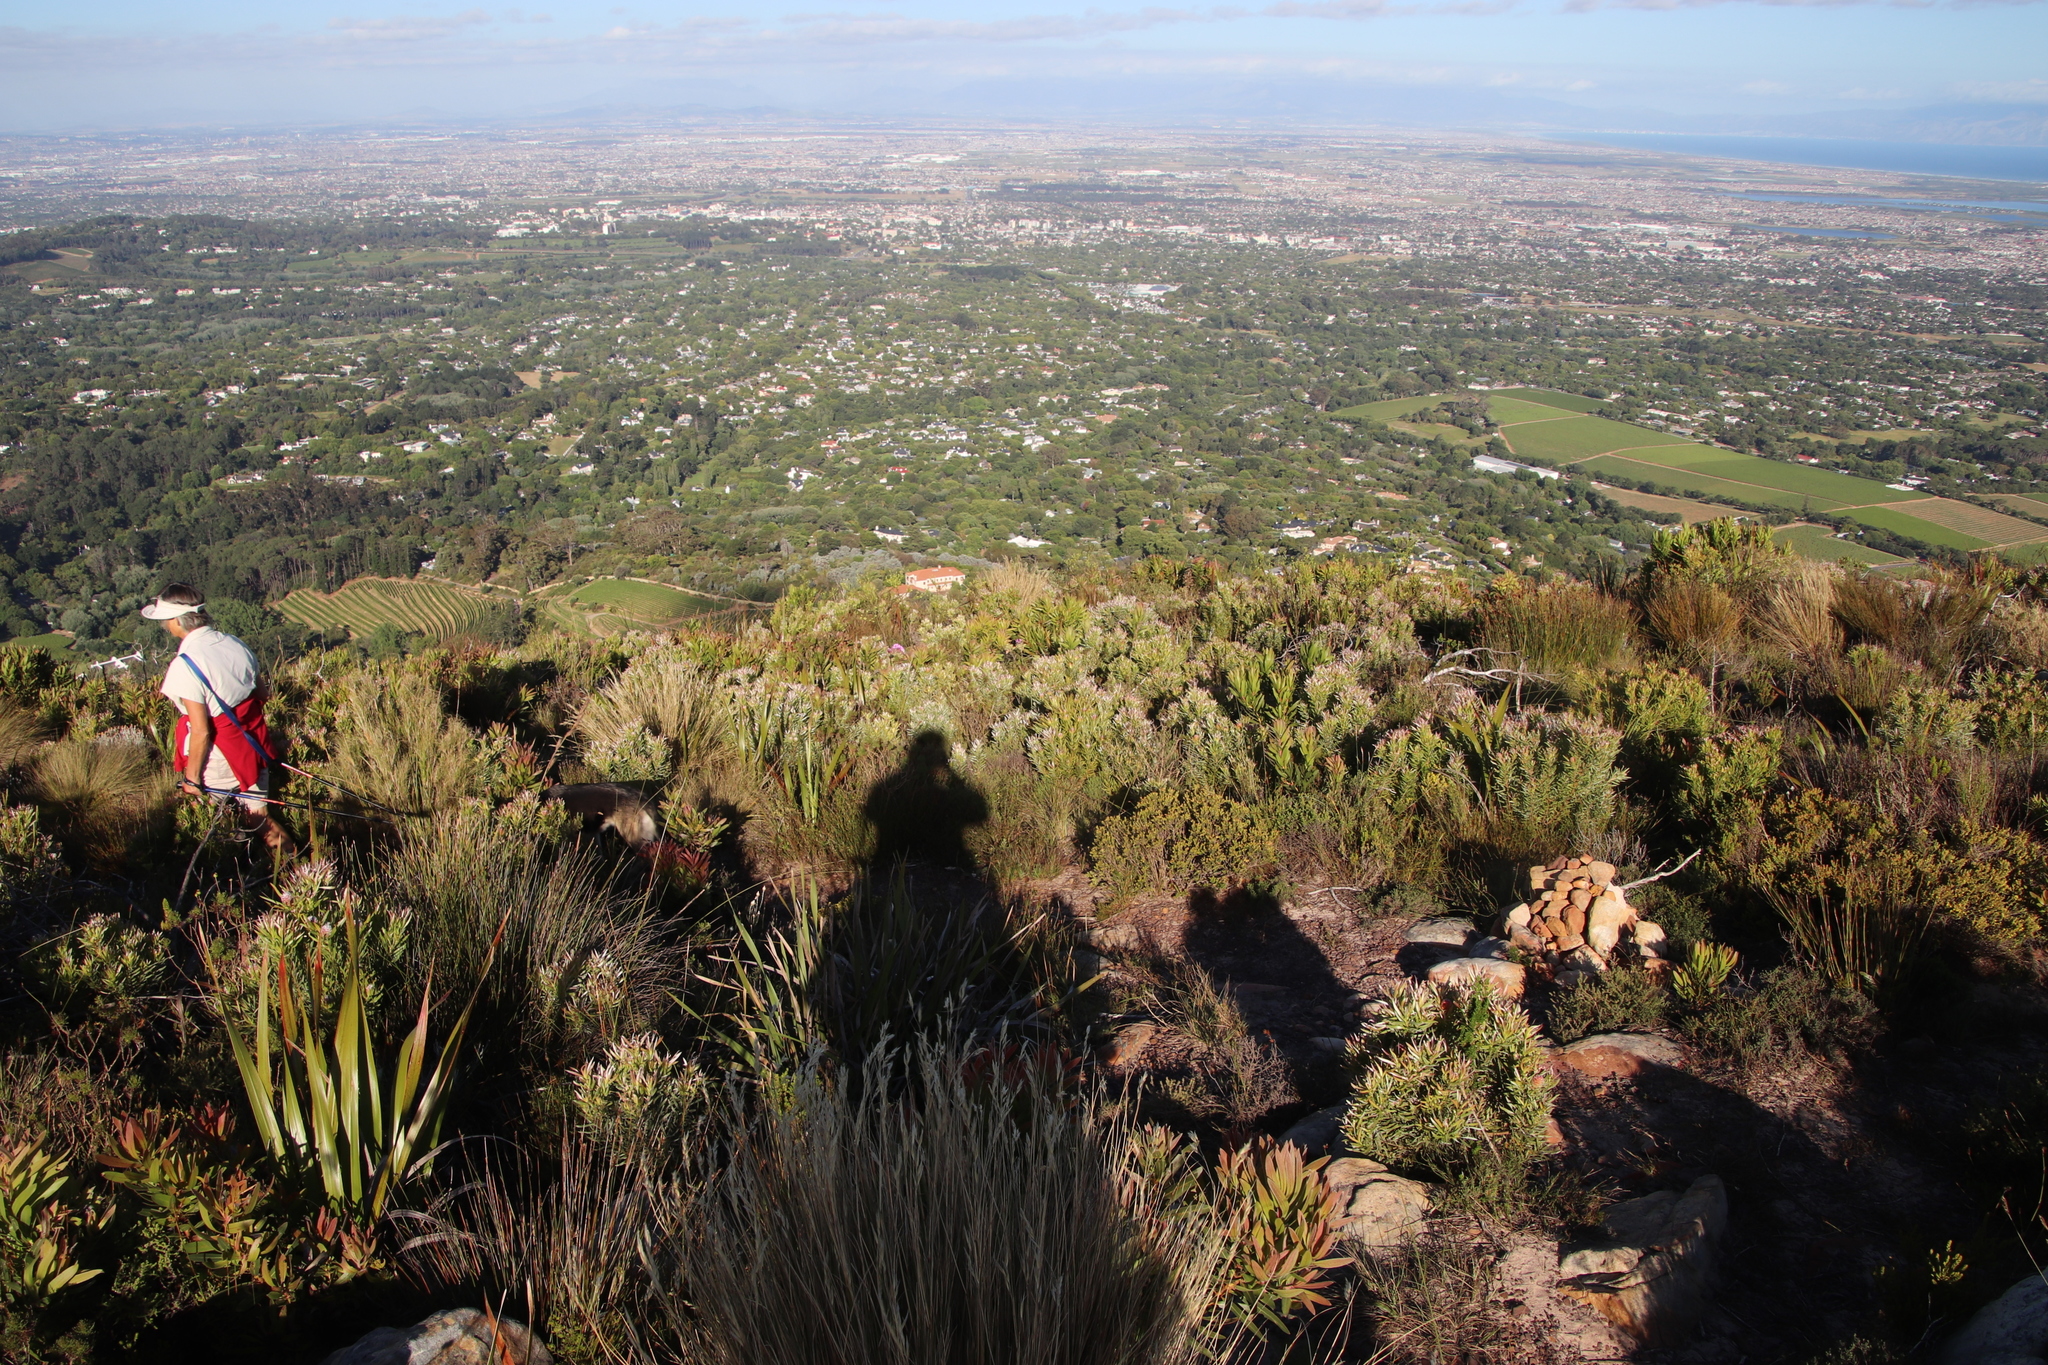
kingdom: Plantae
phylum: Tracheophyta
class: Magnoliopsida
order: Proteales
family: Proteaceae
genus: Leucadendron
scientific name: Leucadendron xanthoconus
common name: Sickle-leaf conebush
